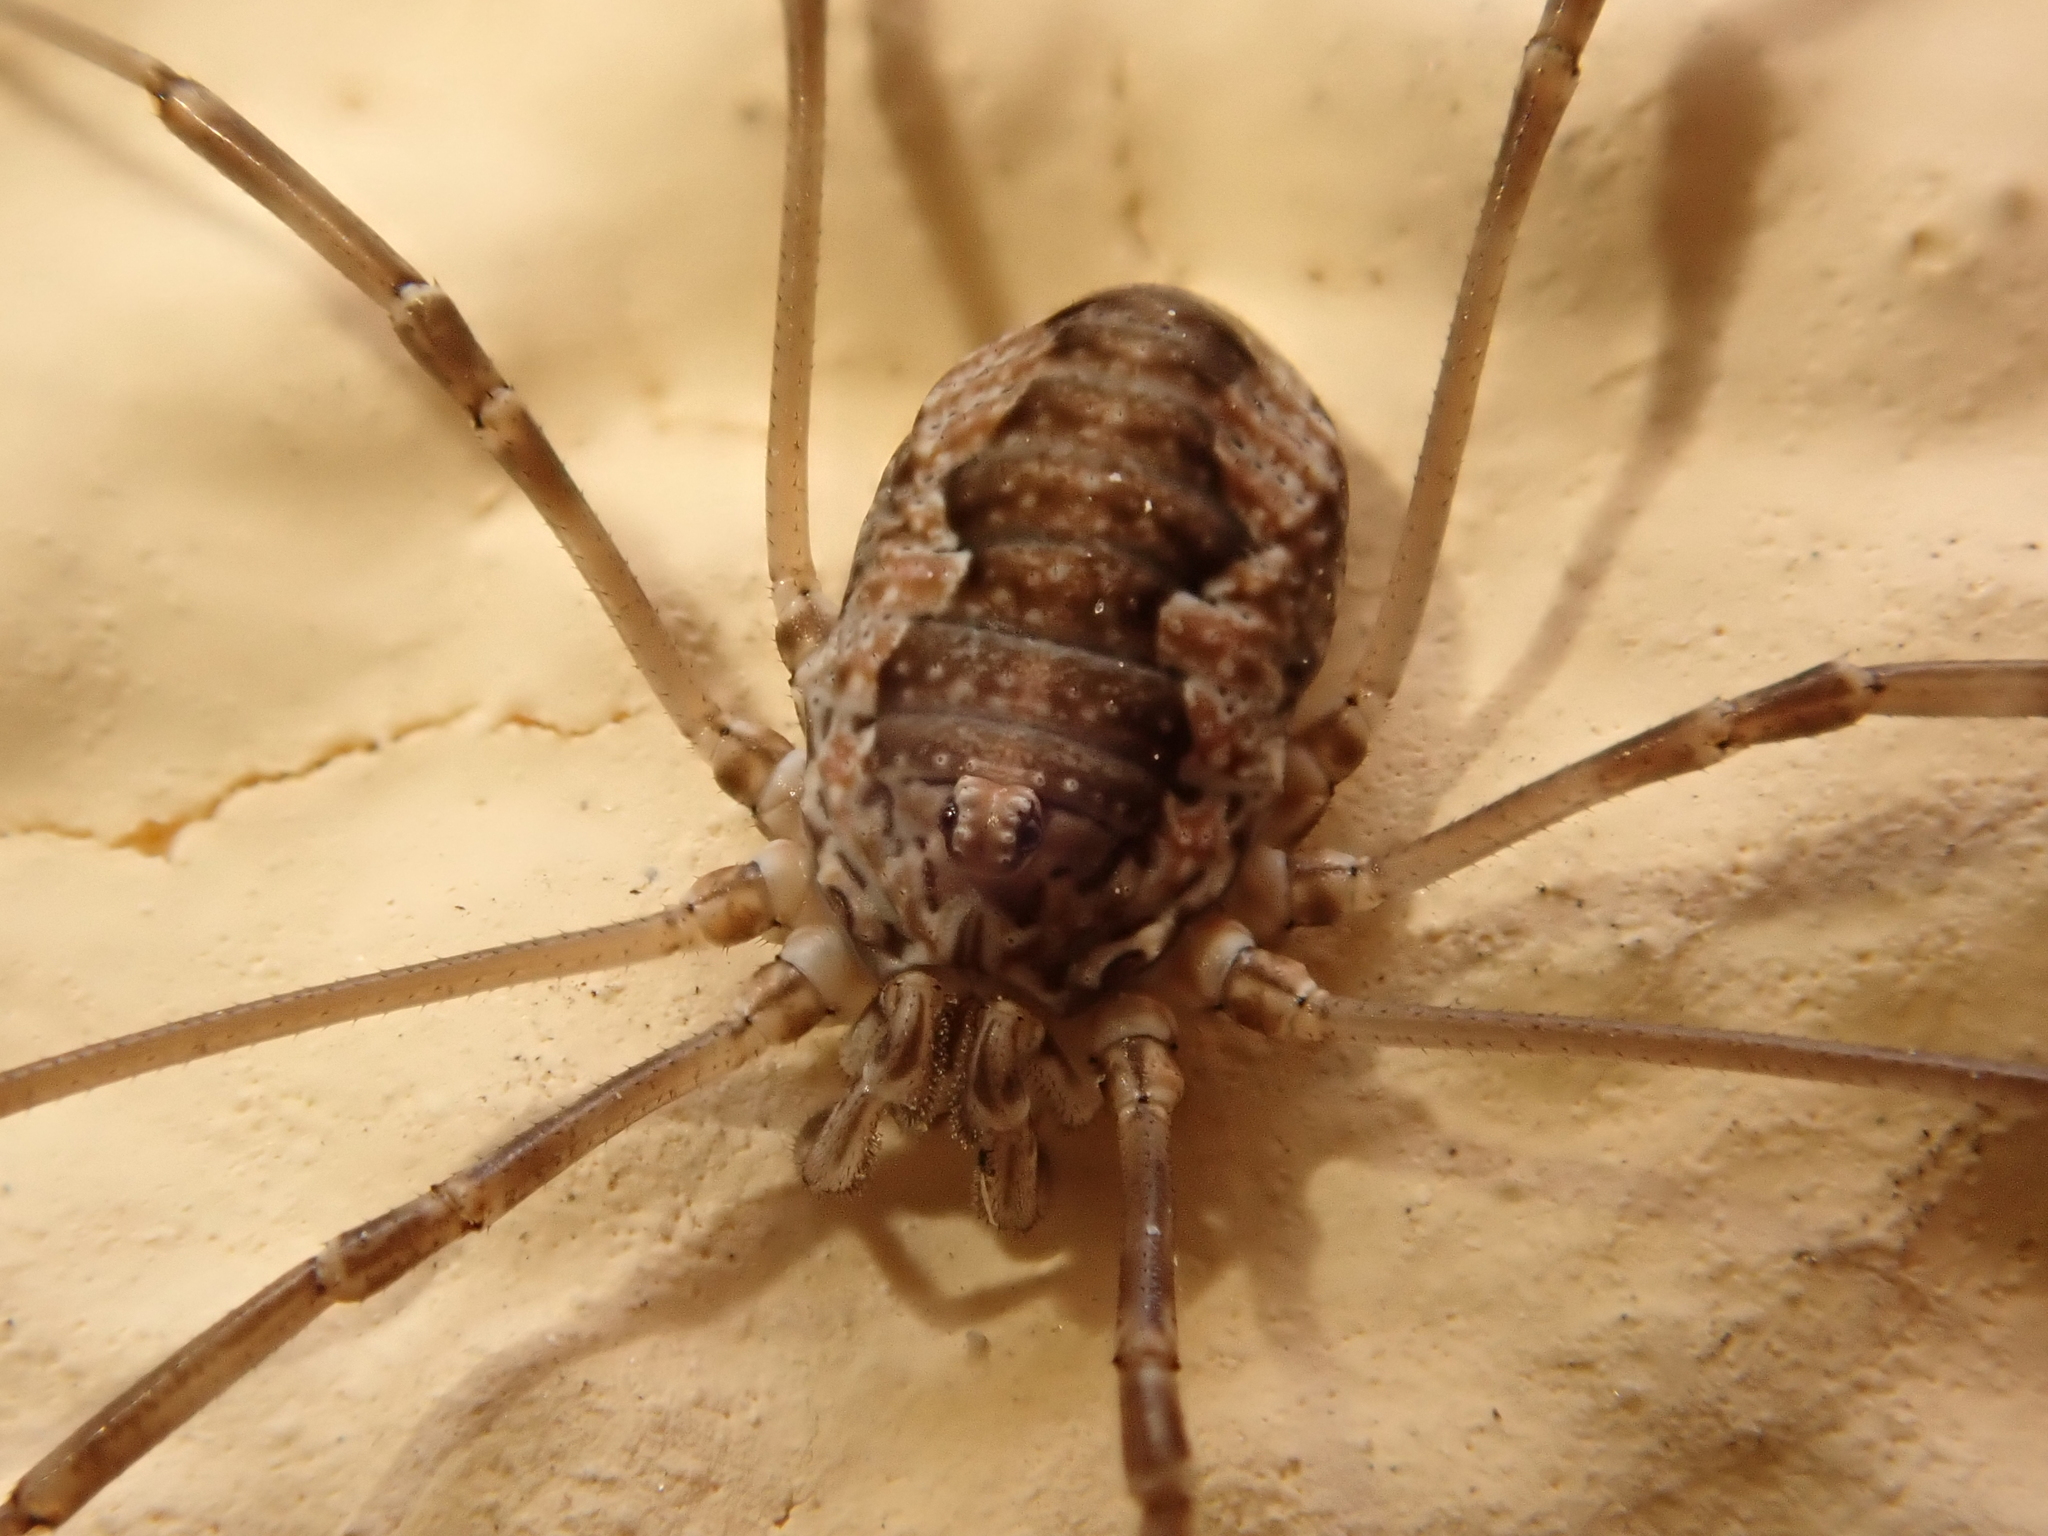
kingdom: Animalia
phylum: Arthropoda
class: Arachnida
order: Opiliones
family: Phalangiidae
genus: Phalangium
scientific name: Phalangium opilio
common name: Daddy longleg
